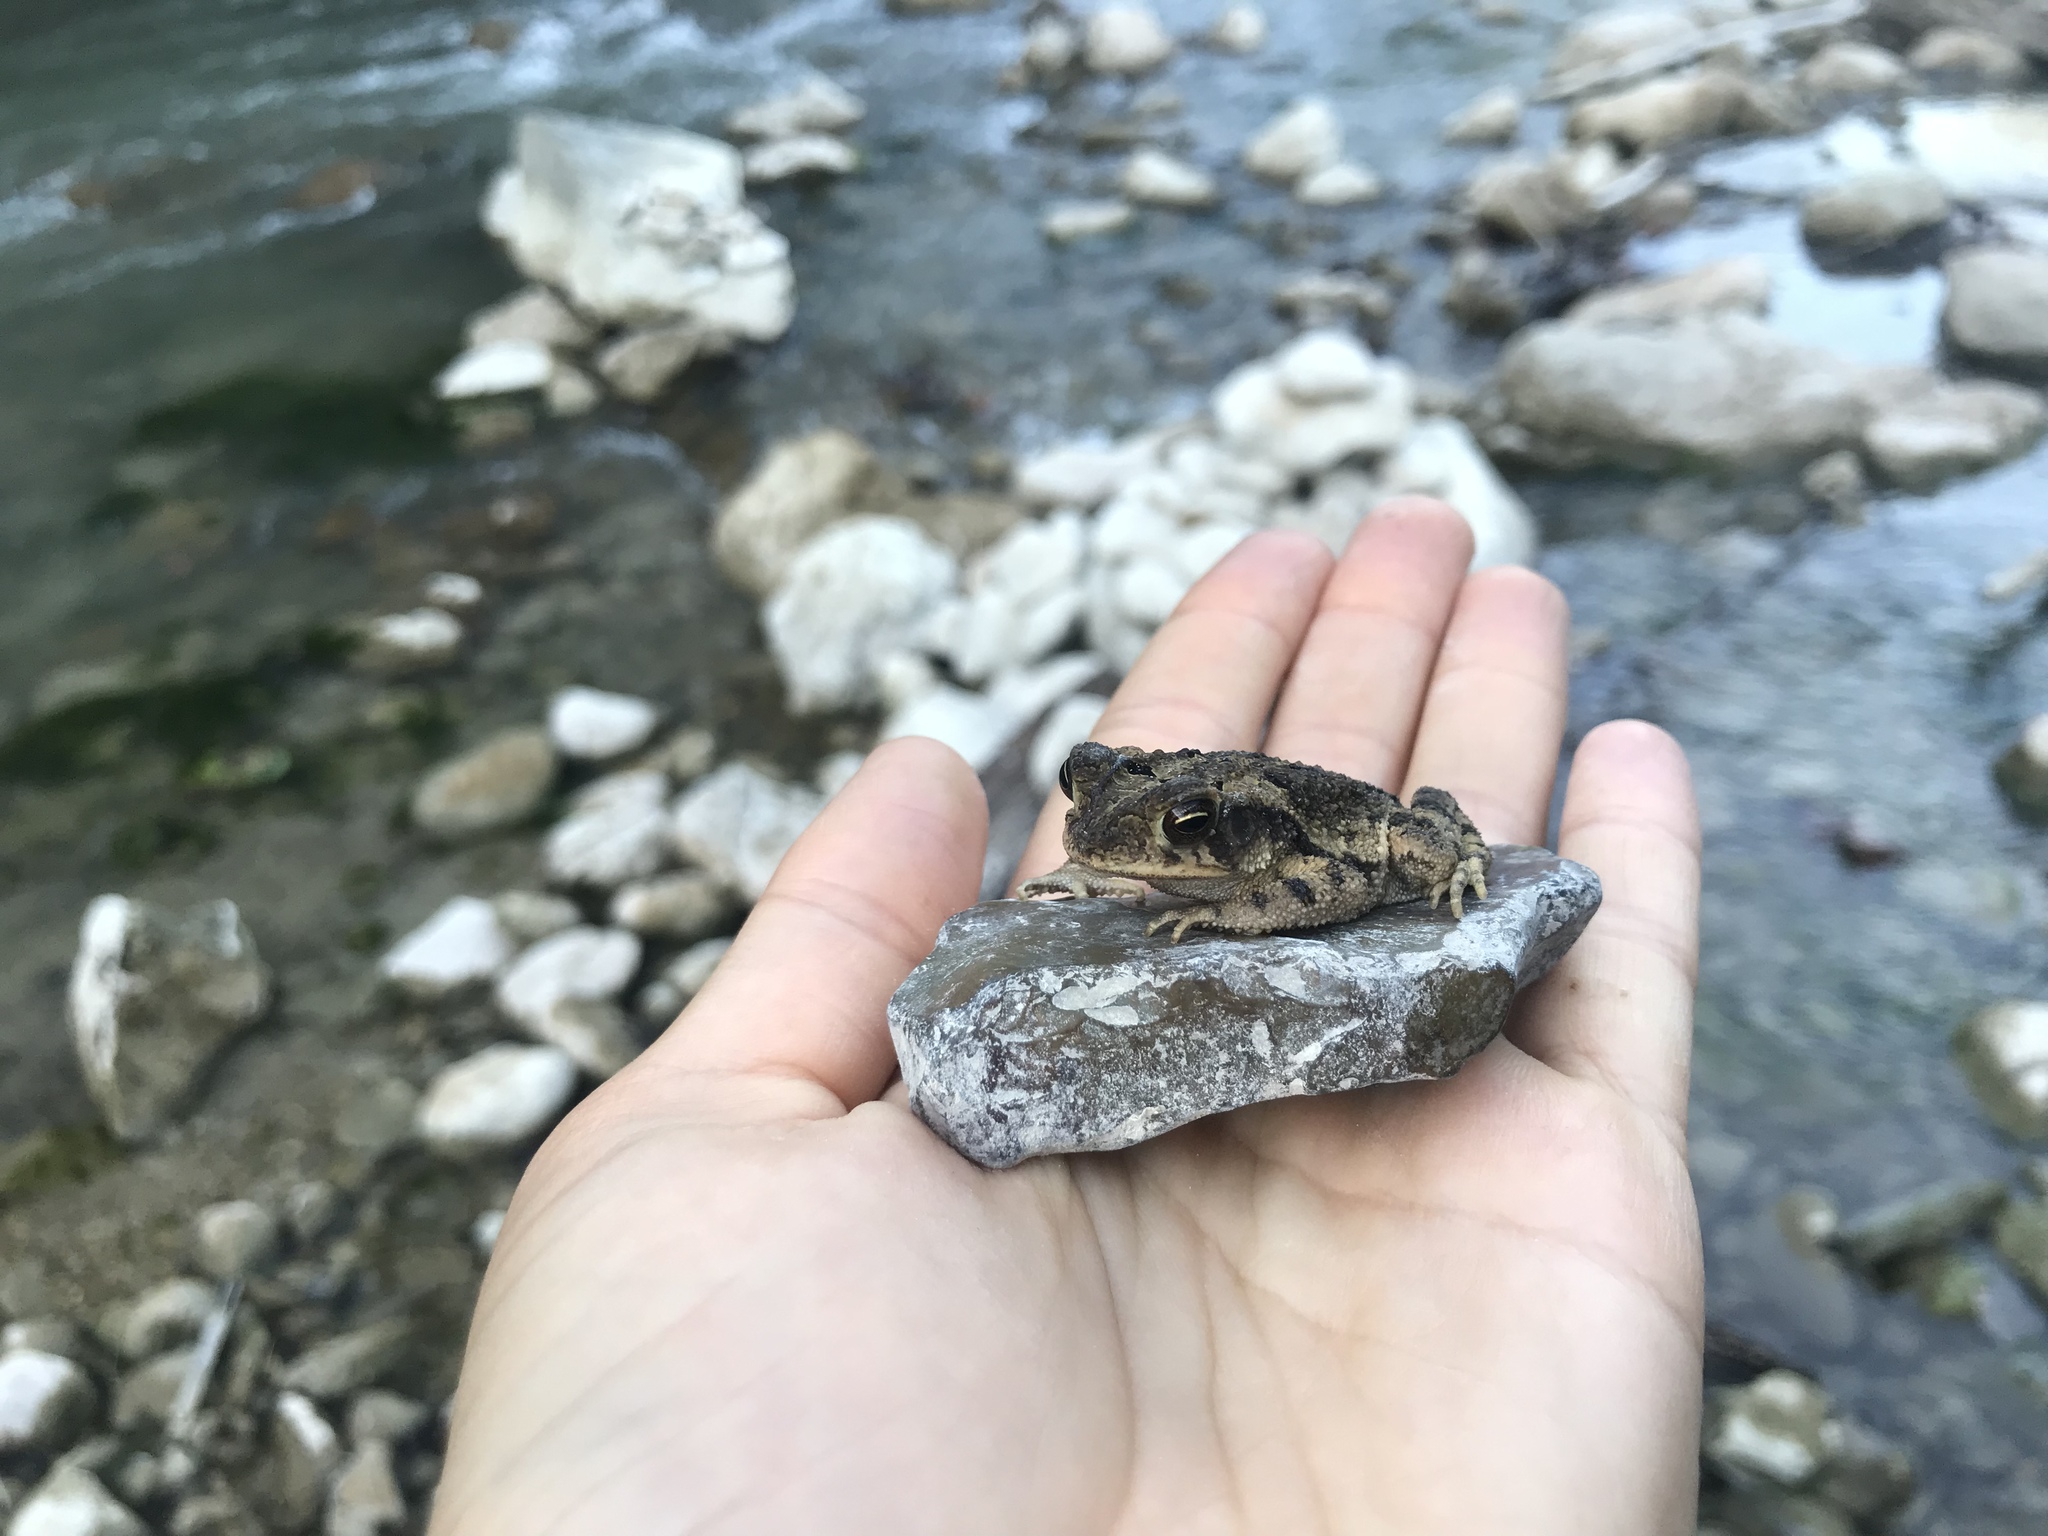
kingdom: Animalia
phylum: Chordata
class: Amphibia
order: Anura
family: Bufonidae
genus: Incilius
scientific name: Incilius nebulifer
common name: Gulf coast toad
